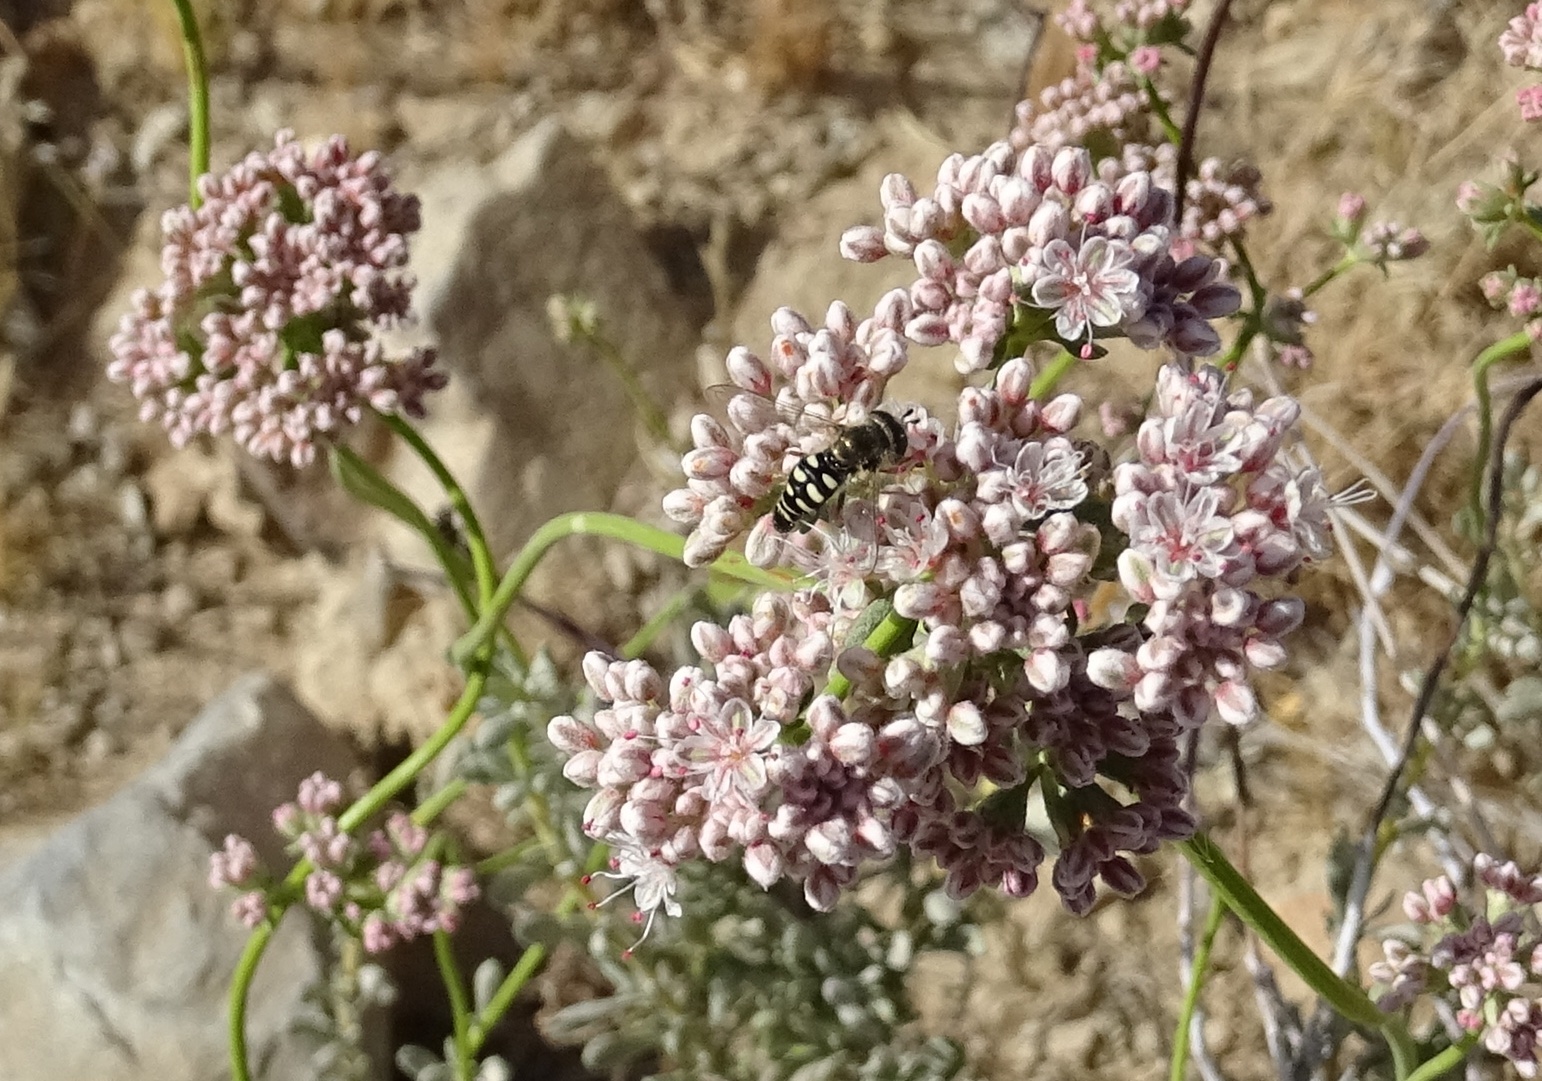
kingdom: Animalia
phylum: Arthropoda
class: Insecta
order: Diptera
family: Syrphidae
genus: Eupeodes
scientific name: Eupeodes volucris
